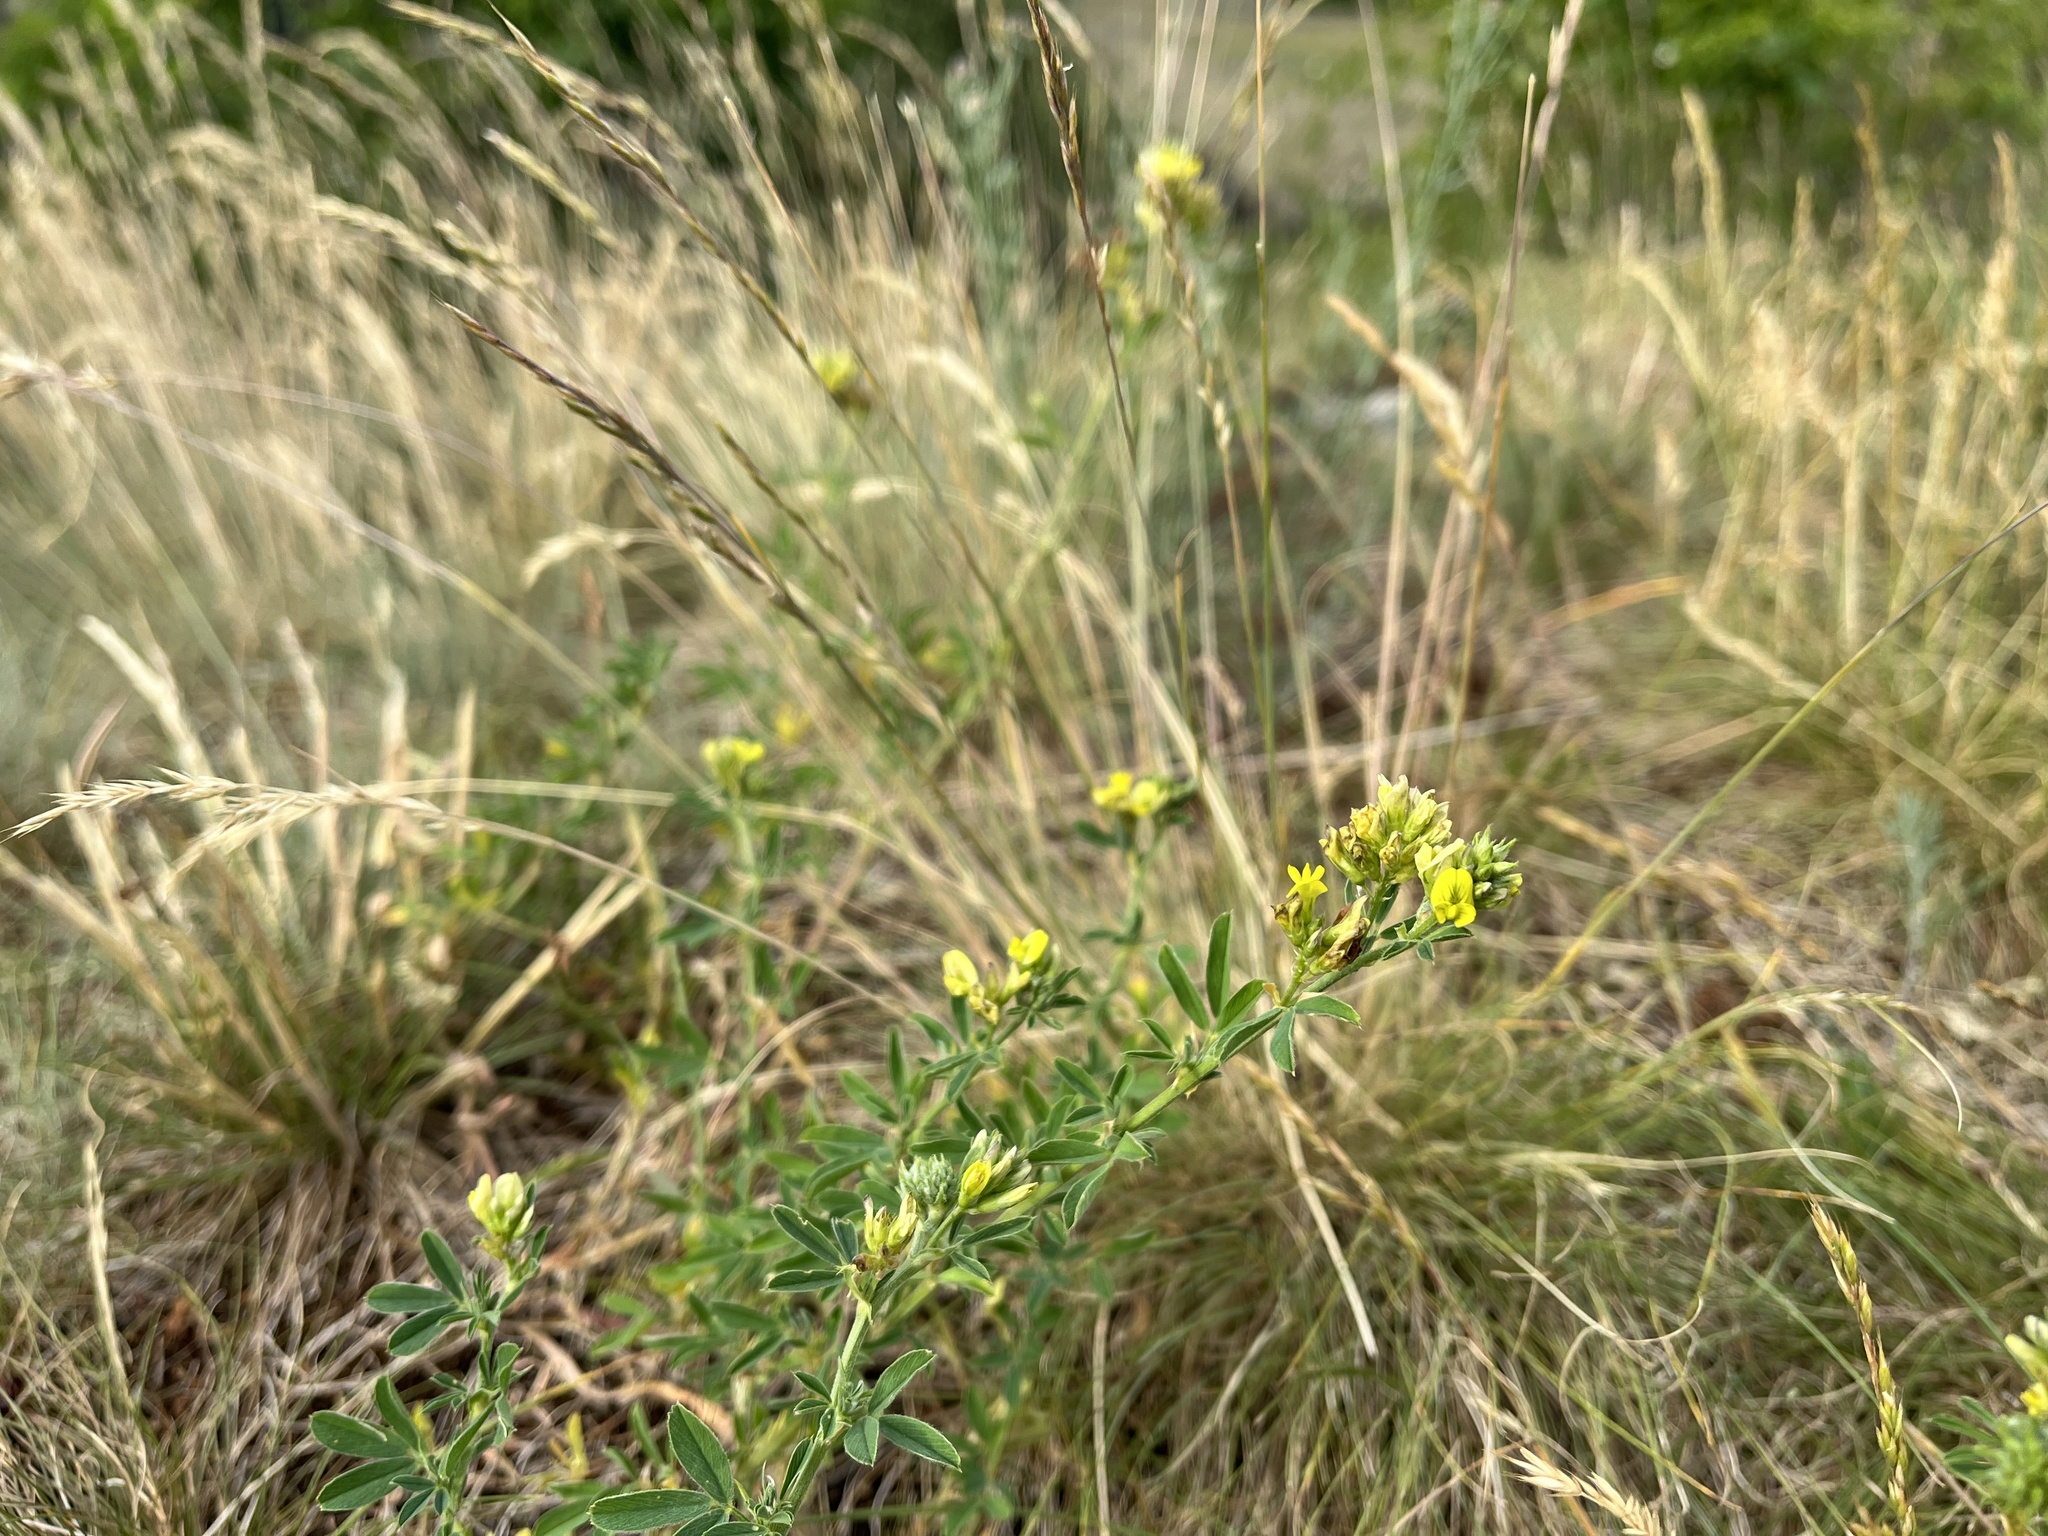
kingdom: Plantae
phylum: Tracheophyta
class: Magnoliopsida
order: Fabales
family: Fabaceae
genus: Medicago
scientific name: Medicago falcata
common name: Sickle medick
